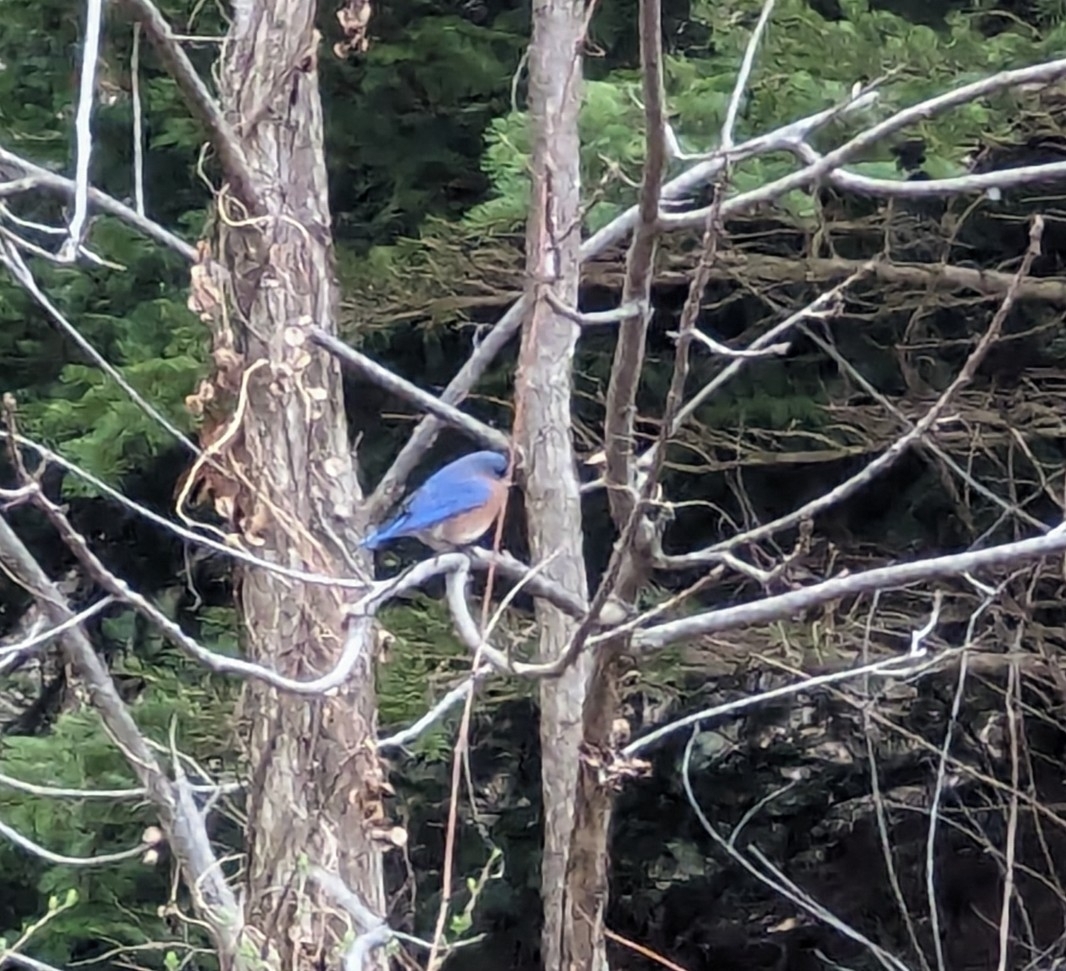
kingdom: Animalia
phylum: Chordata
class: Aves
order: Passeriformes
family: Turdidae
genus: Sialia
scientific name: Sialia sialis
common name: Eastern bluebird
